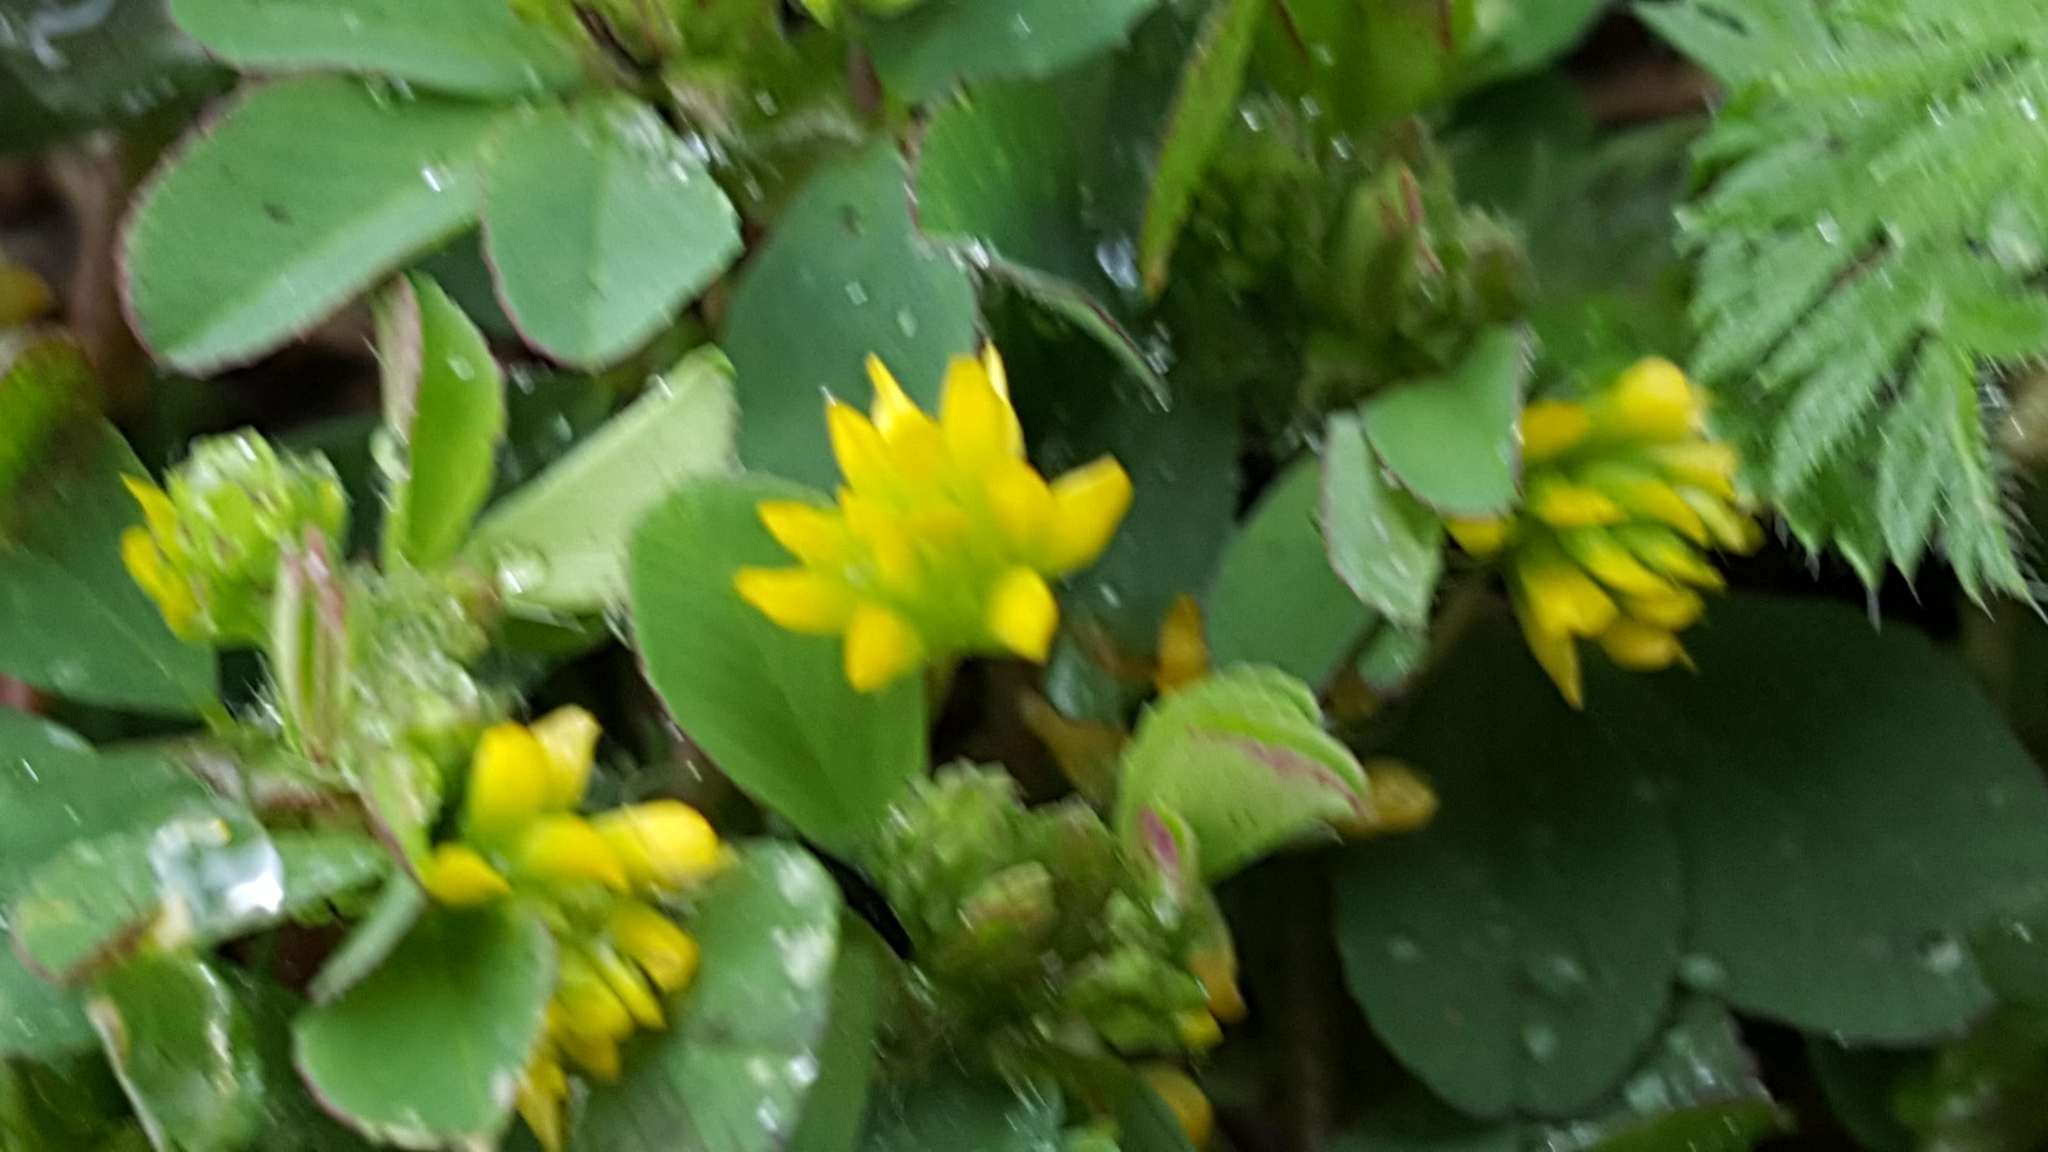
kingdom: Plantae
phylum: Tracheophyta
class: Magnoliopsida
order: Fabales
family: Fabaceae
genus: Trifolium
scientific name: Trifolium dubium
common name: Suckling clover
